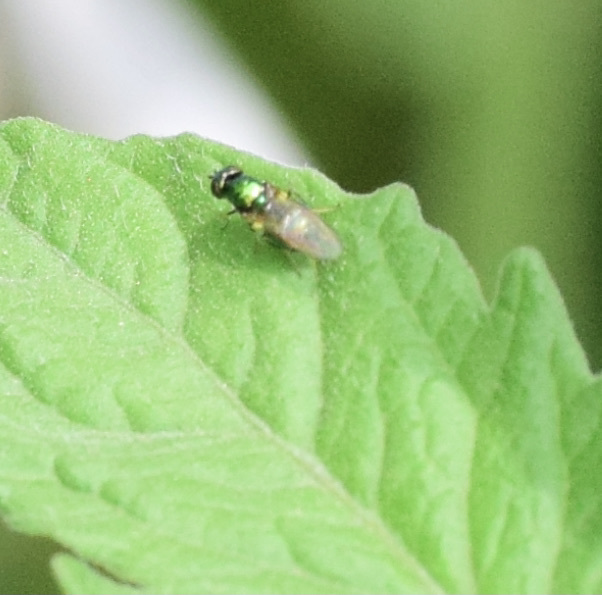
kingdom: Animalia
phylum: Arthropoda
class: Insecta
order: Diptera
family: Stratiomyidae
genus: Microchrysa
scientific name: Microchrysa polita
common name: Black-horned gem
